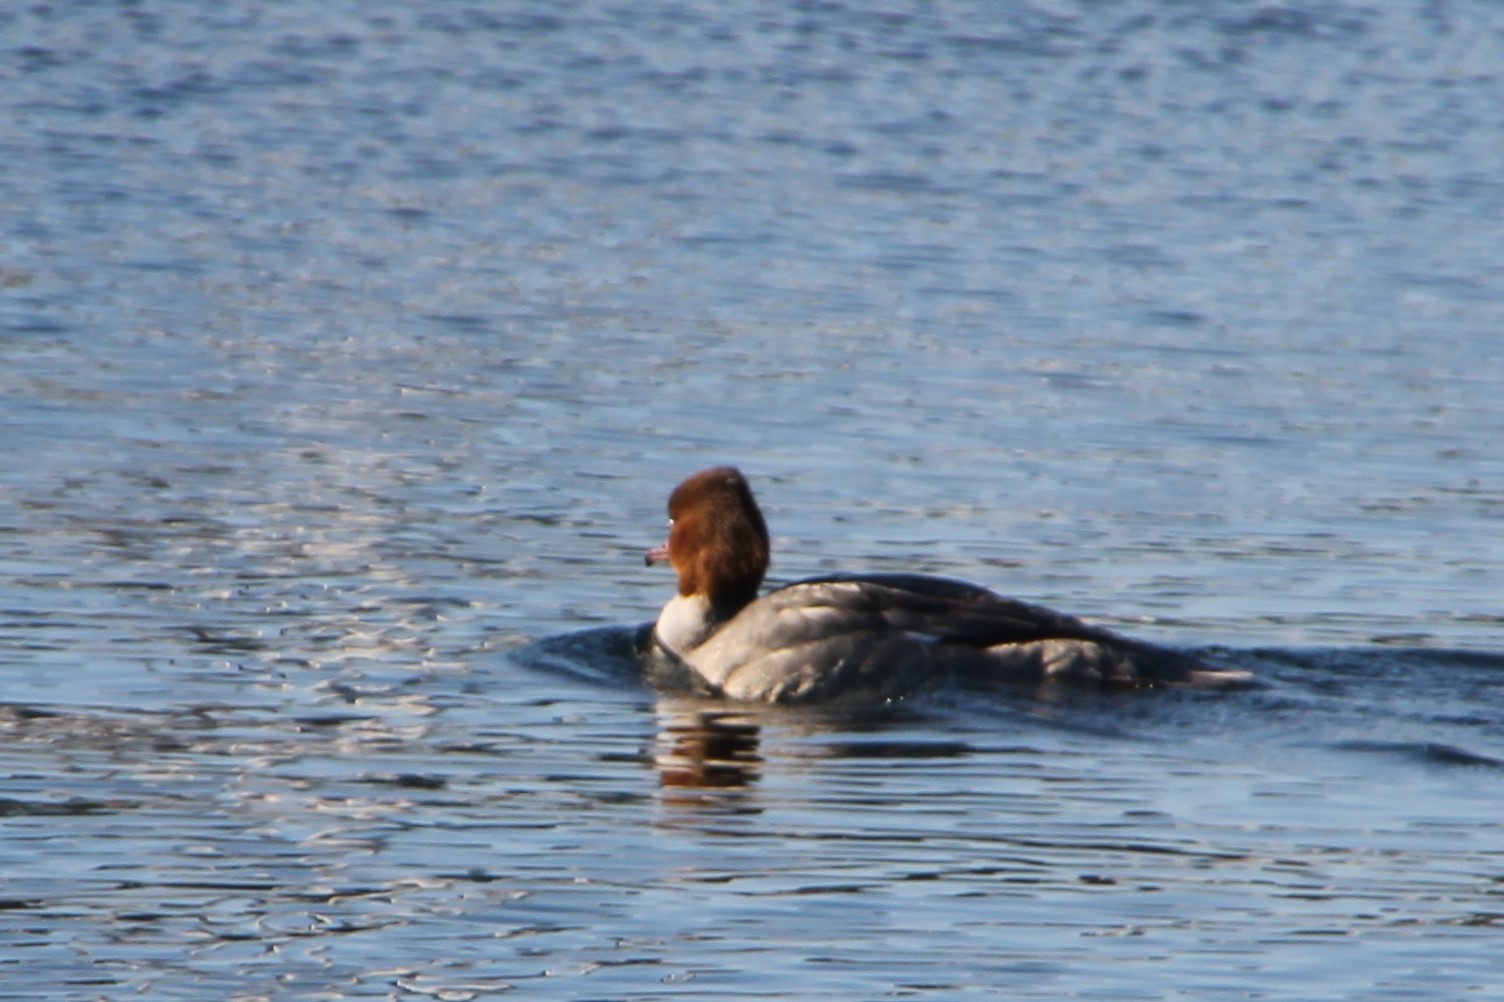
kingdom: Animalia
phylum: Chordata
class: Aves
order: Anseriformes
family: Anatidae
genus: Mergus
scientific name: Mergus merganser
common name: Common merganser
